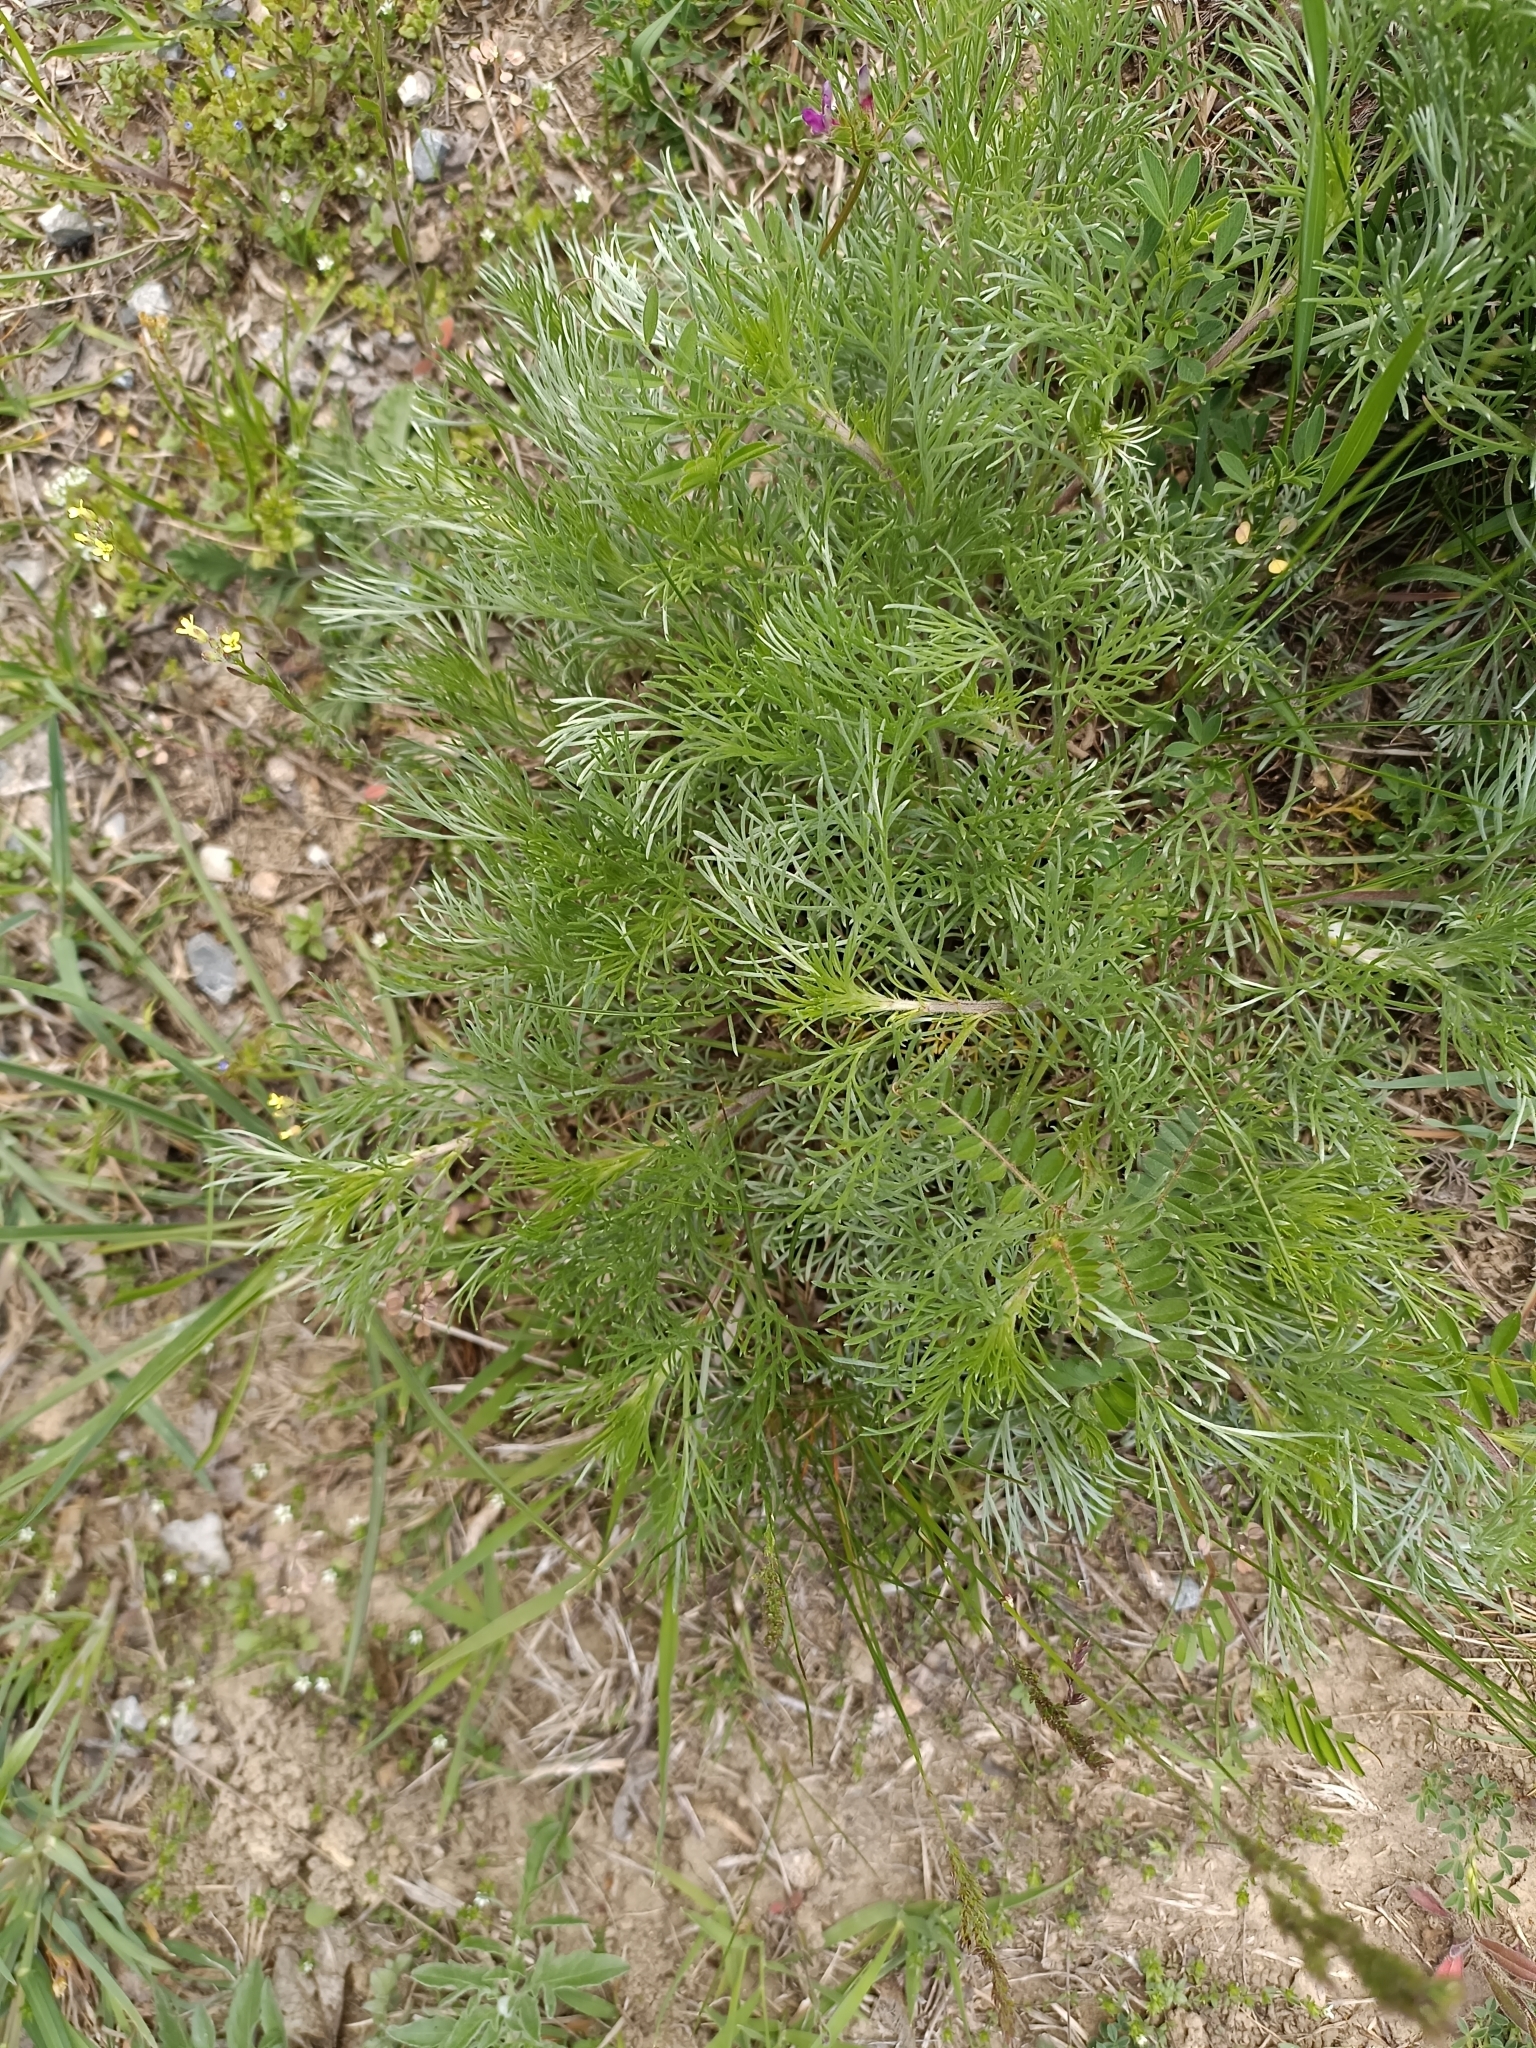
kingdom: Plantae
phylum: Tracheophyta
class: Magnoliopsida
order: Asterales
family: Asteraceae
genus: Artemisia
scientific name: Artemisia campestris
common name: Field wormwood
